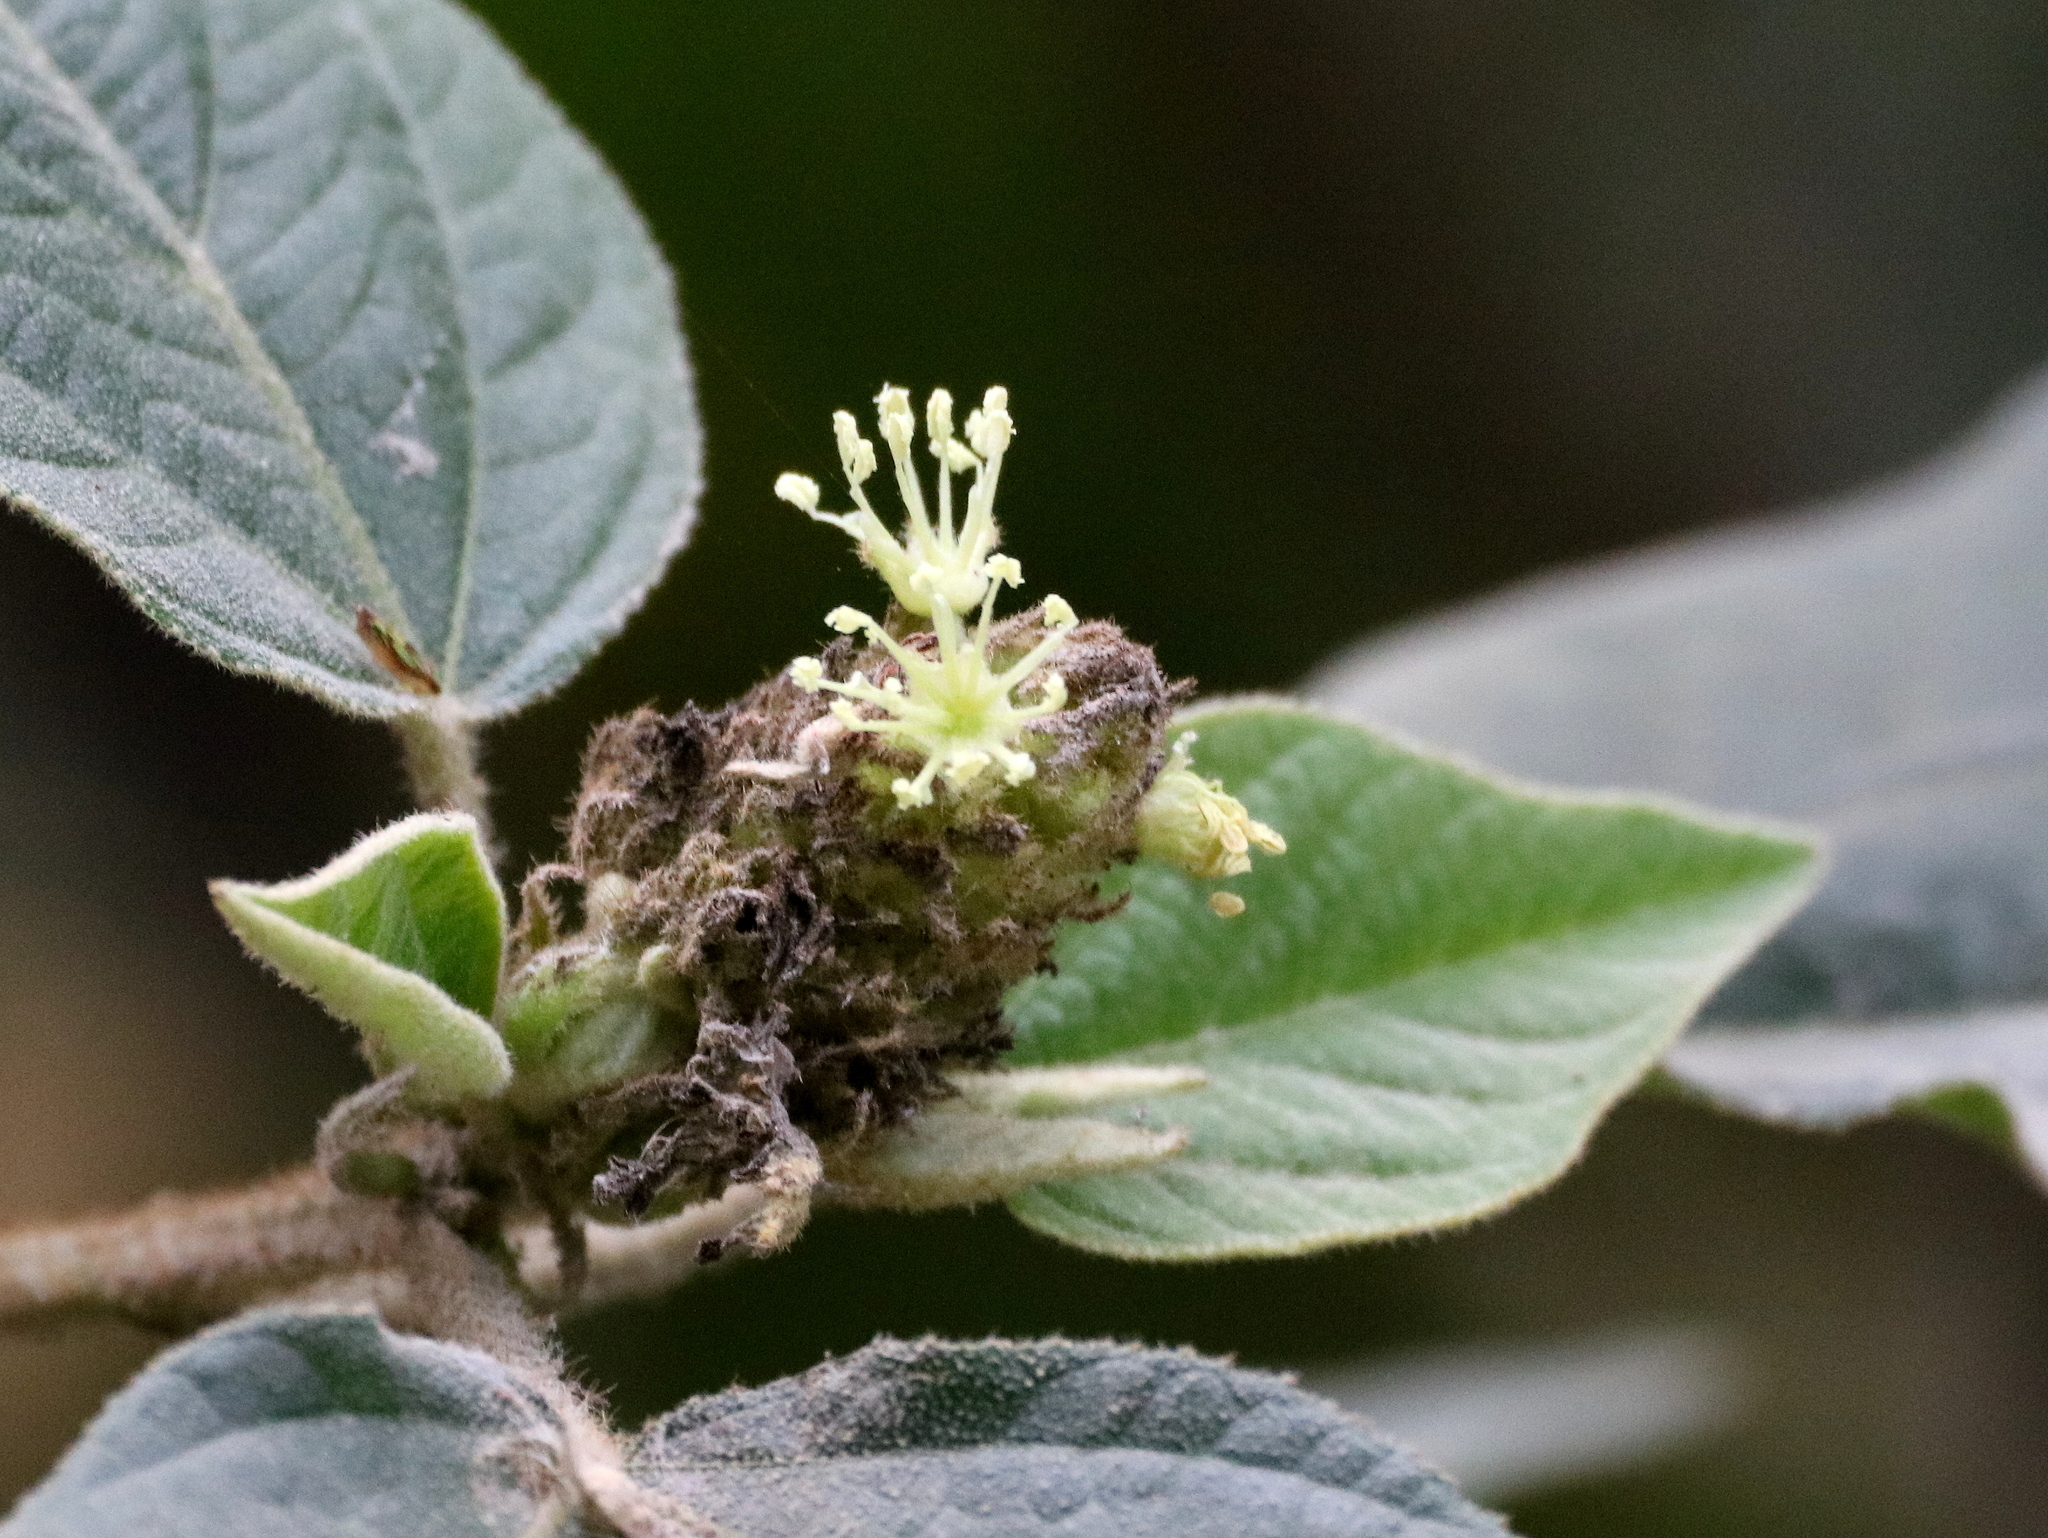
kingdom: Plantae
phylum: Tracheophyta
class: Magnoliopsida
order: Malpighiales
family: Euphorbiaceae
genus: Croton
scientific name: Croton triqueter
